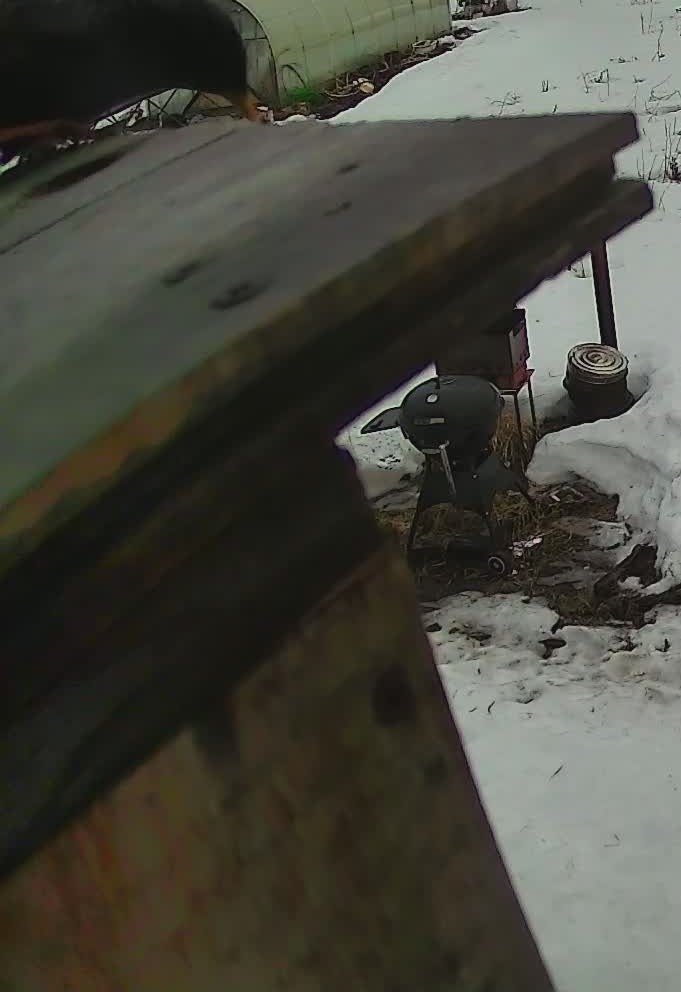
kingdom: Animalia
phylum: Chordata
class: Aves
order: Passeriformes
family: Sturnidae
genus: Sturnus
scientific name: Sturnus vulgaris
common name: Common starling
